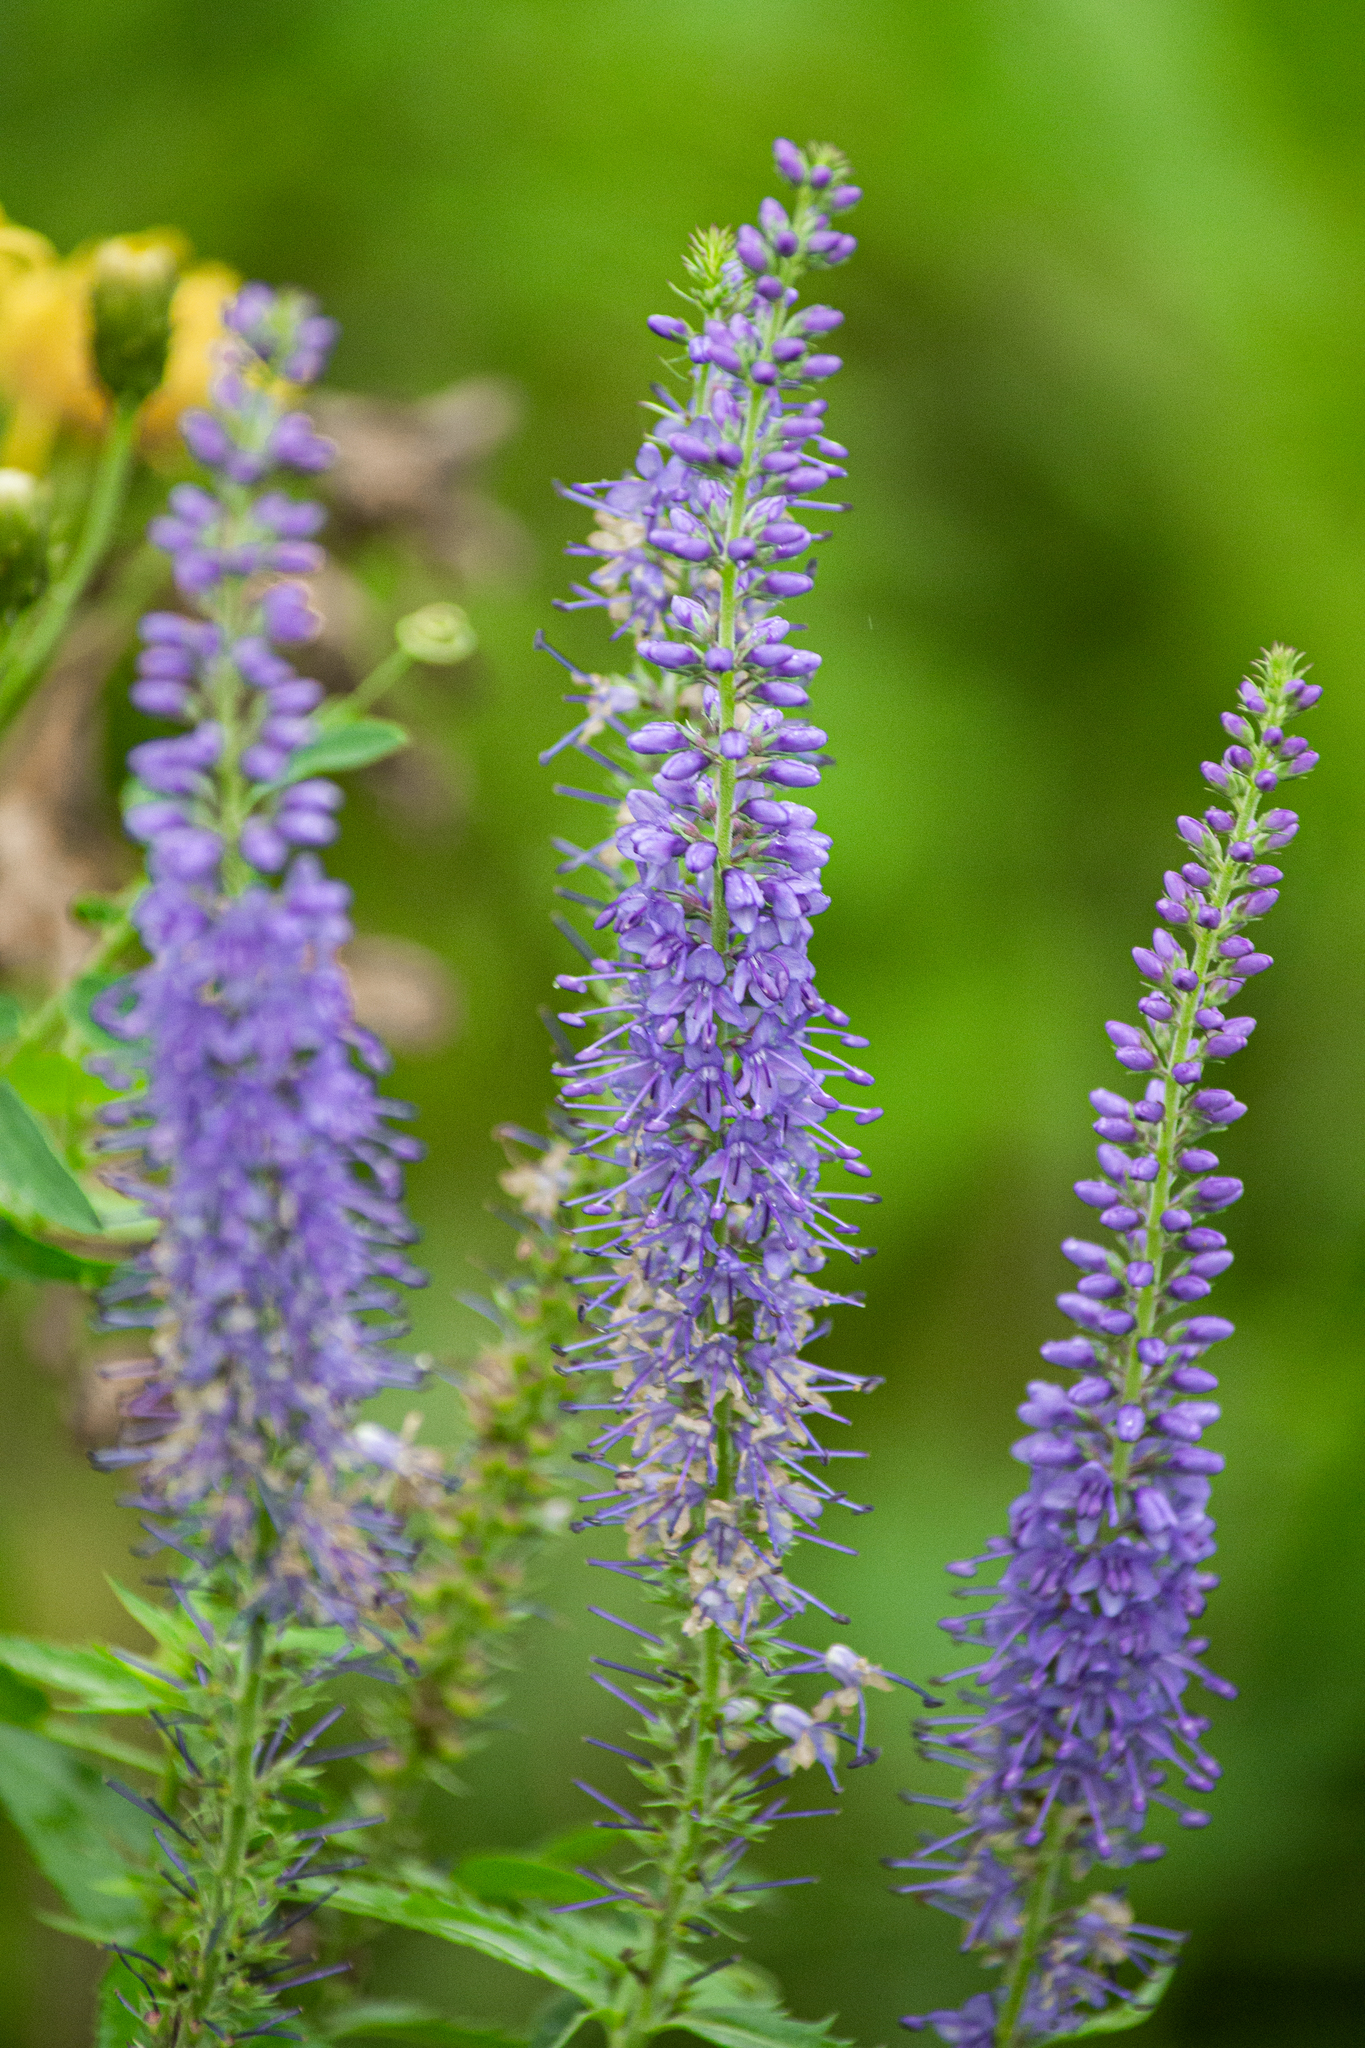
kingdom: Plantae
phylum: Tracheophyta
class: Magnoliopsida
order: Lamiales
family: Plantaginaceae
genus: Veronica
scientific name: Veronica longifolia
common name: Garden speedwell
